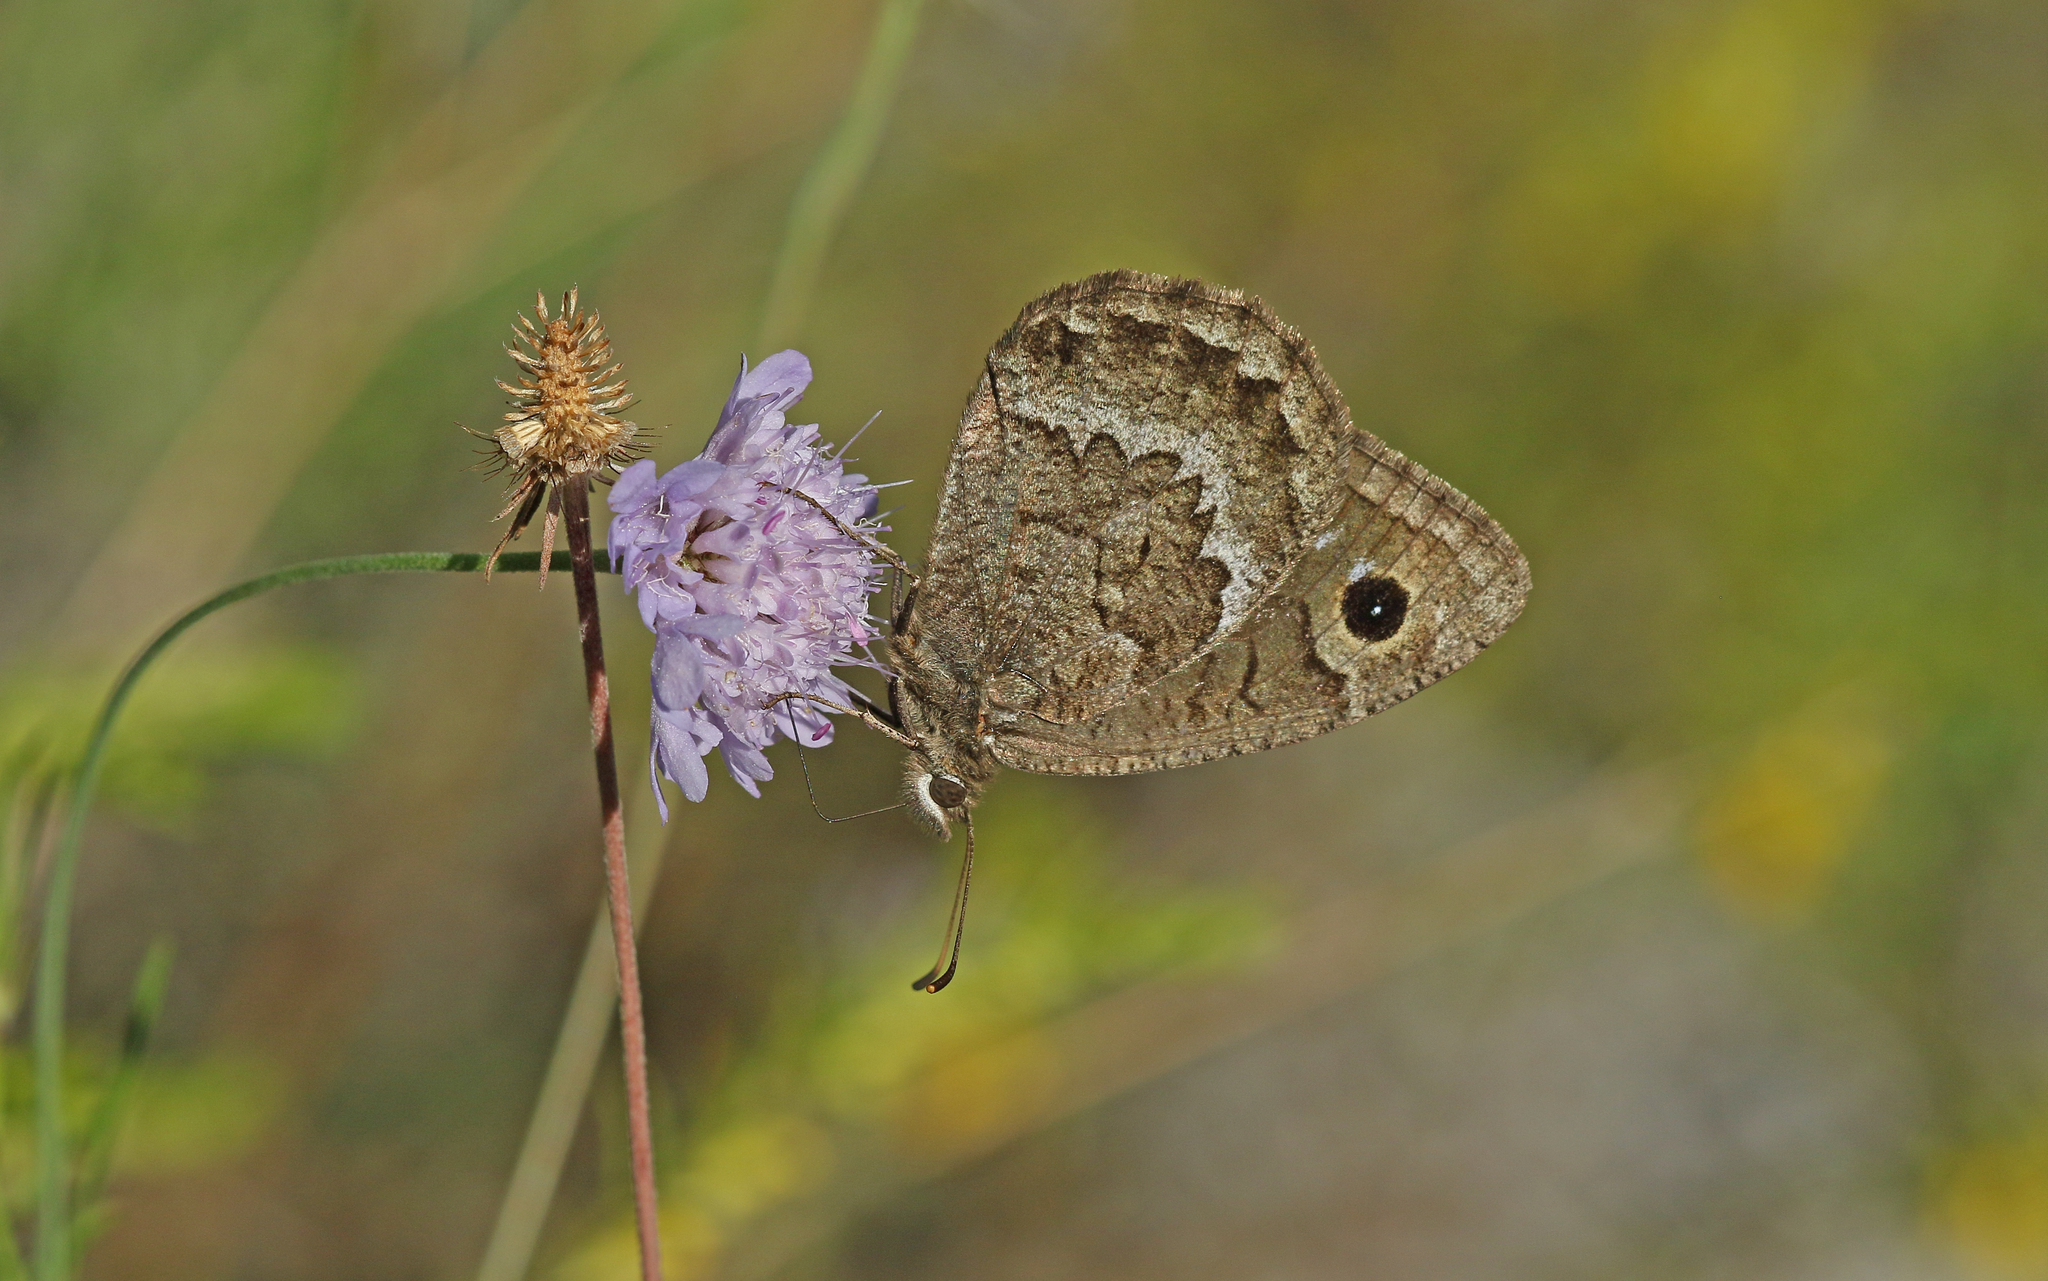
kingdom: Animalia
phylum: Arthropoda
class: Insecta
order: Lepidoptera
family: Nymphalidae
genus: Satyrus
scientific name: Satyrus actaea
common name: Black satyr
